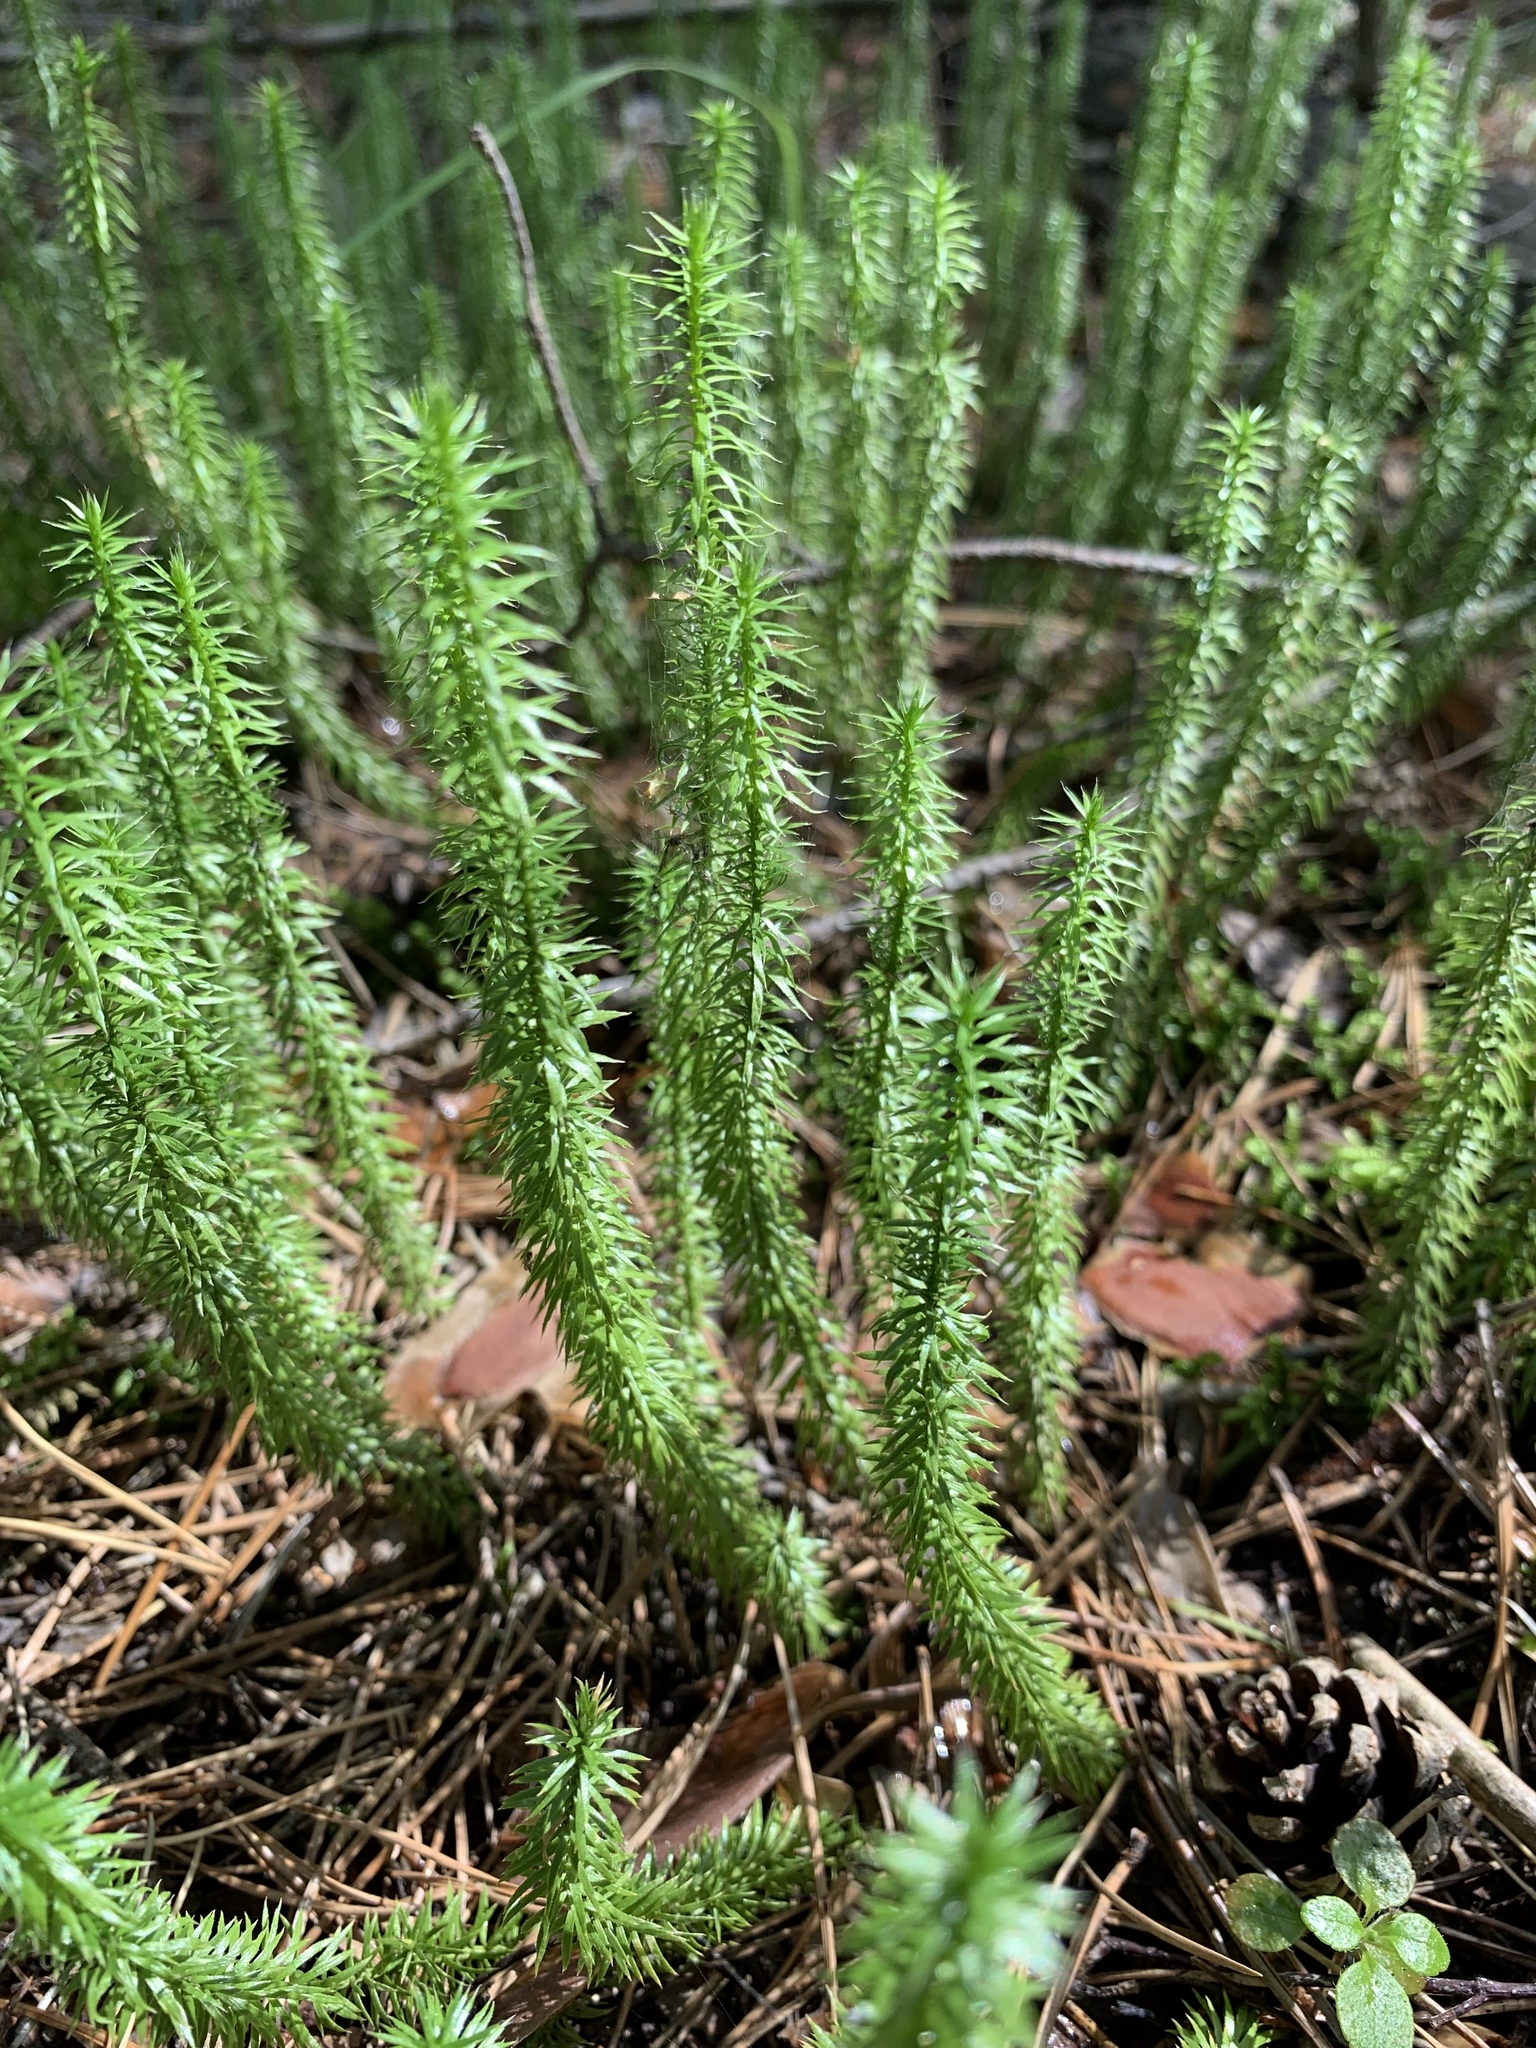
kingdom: Plantae
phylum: Tracheophyta
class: Lycopodiopsida
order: Lycopodiales
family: Lycopodiaceae
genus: Spinulum
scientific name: Spinulum annotinum
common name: Interrupted club-moss
